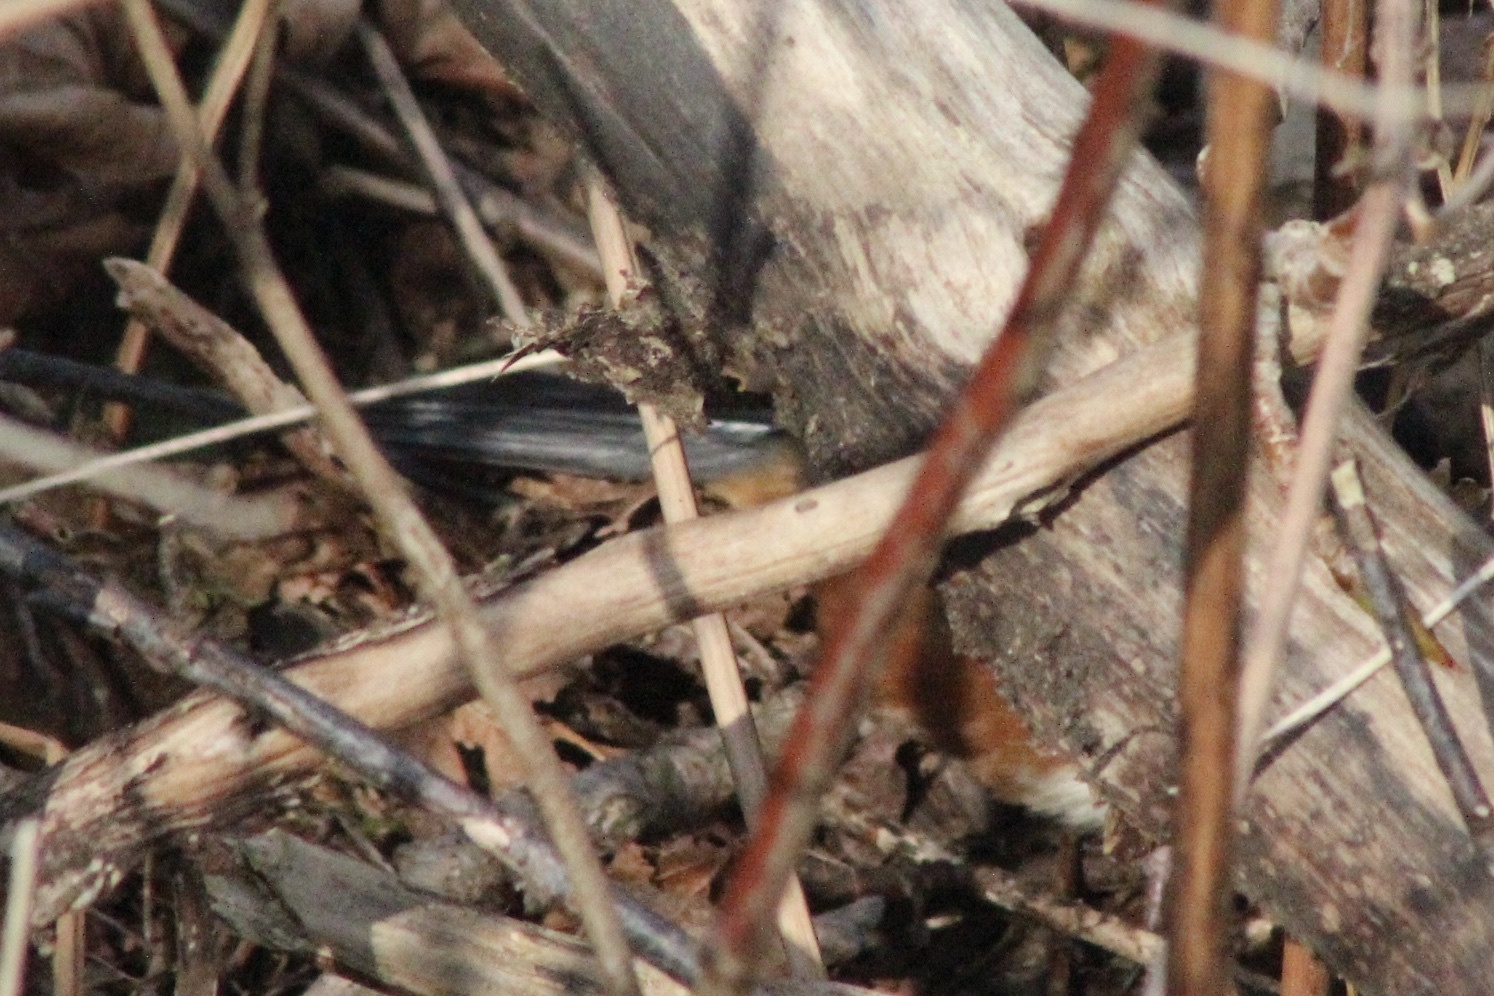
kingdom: Animalia
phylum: Chordata
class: Aves
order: Passeriformes
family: Passerellidae
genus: Pipilo
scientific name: Pipilo maculatus
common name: Spotted towhee
